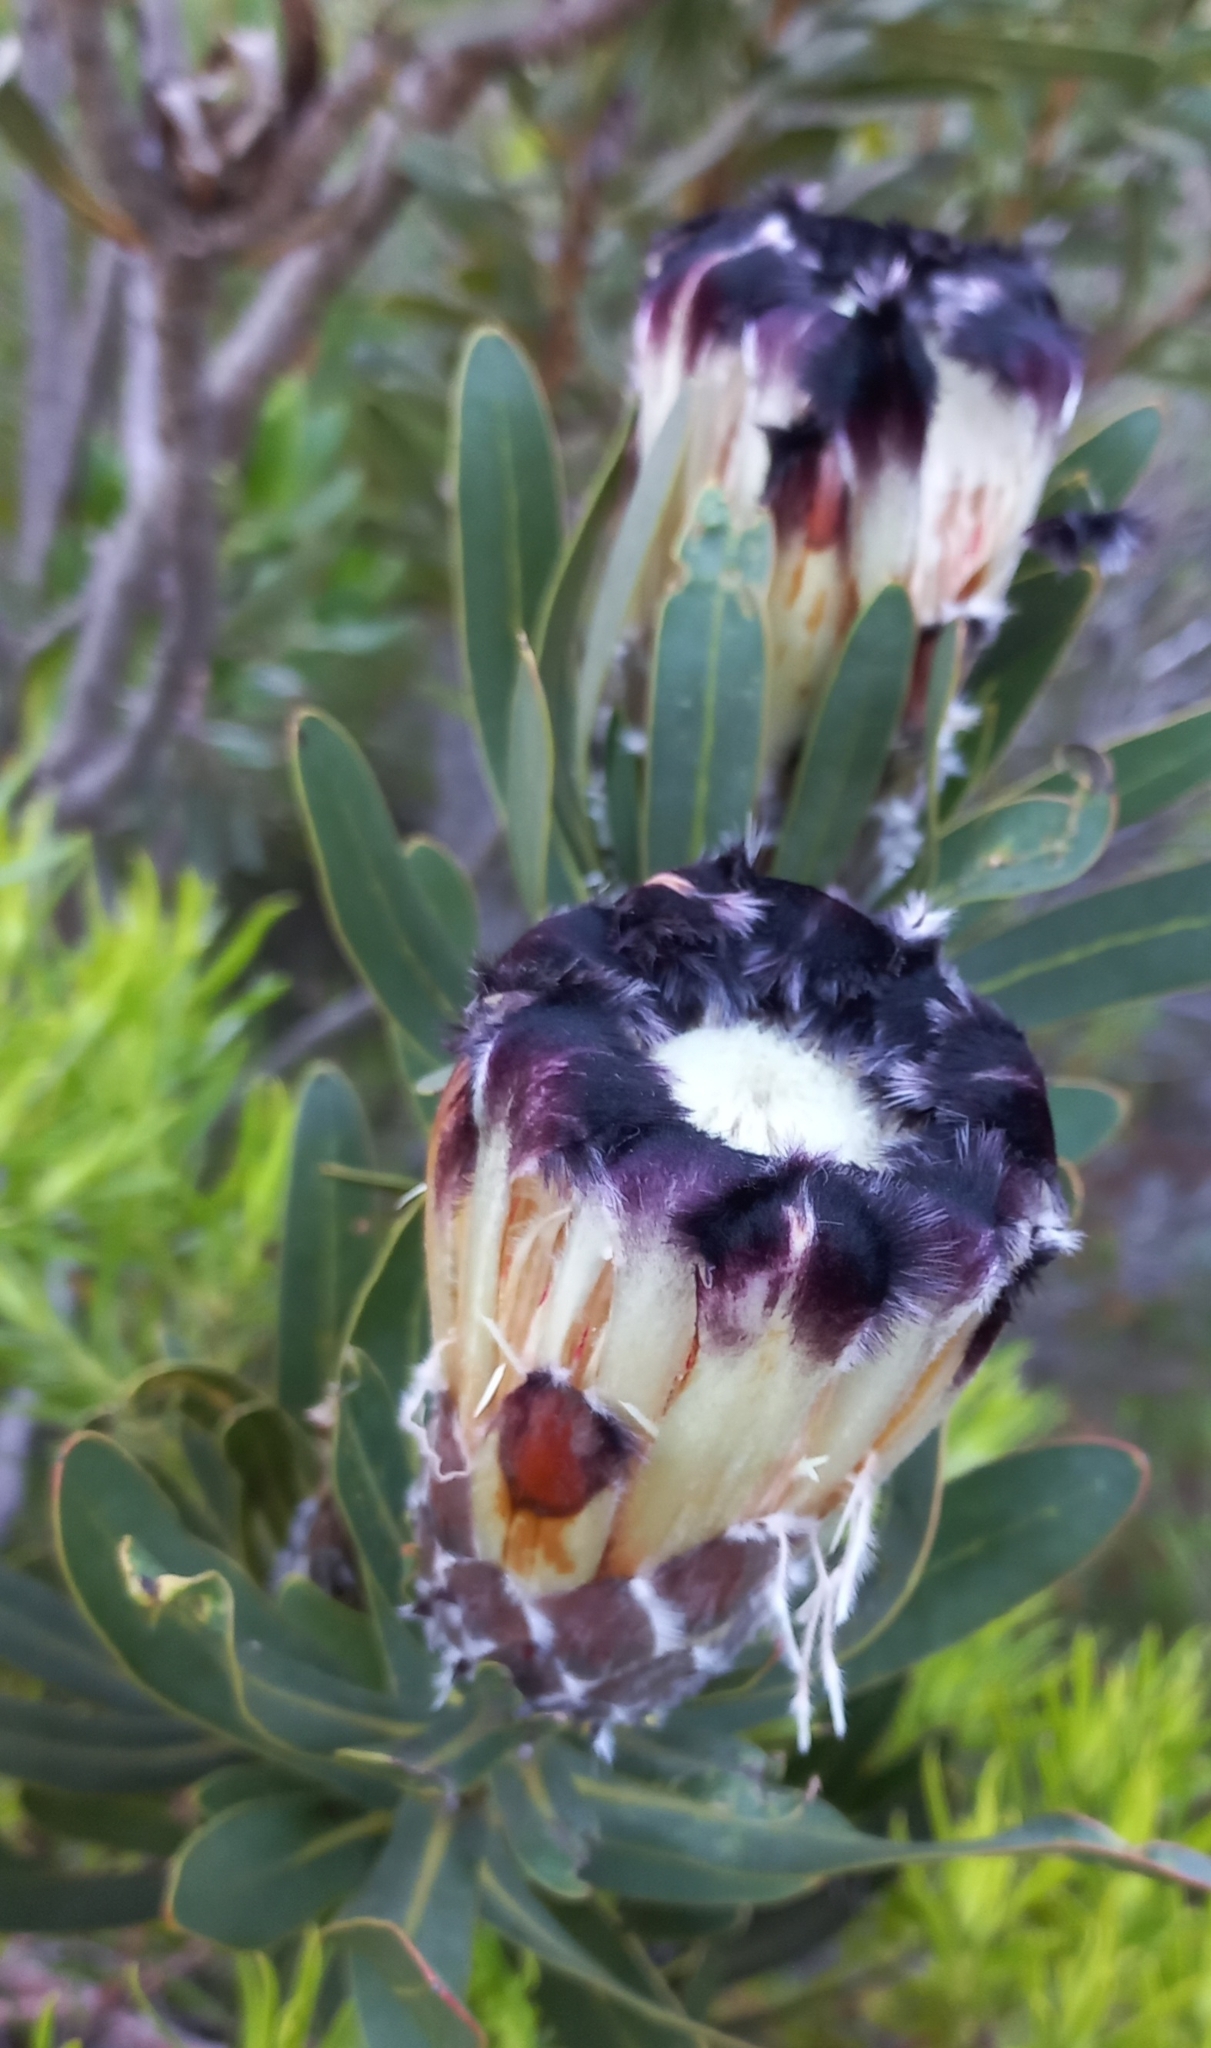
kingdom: Plantae
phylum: Tracheophyta
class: Magnoliopsida
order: Proteales
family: Proteaceae
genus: Protea
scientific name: Protea lepidocarpodendron
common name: Black-bearded protea
